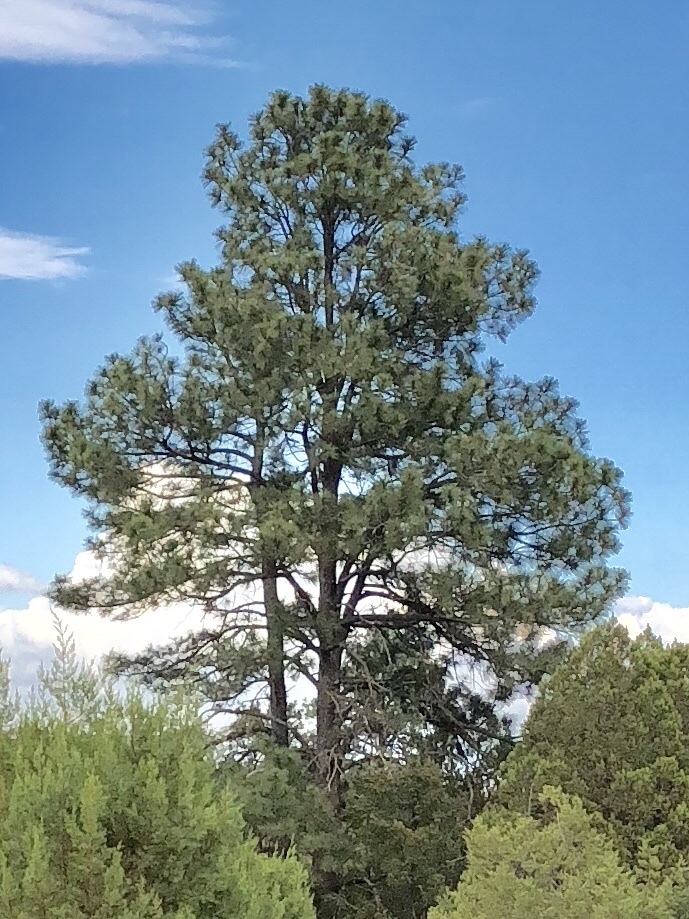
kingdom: Plantae
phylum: Tracheophyta
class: Pinopsida
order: Pinales
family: Pinaceae
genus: Pinus
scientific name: Pinus ponderosa
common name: Western yellow-pine
